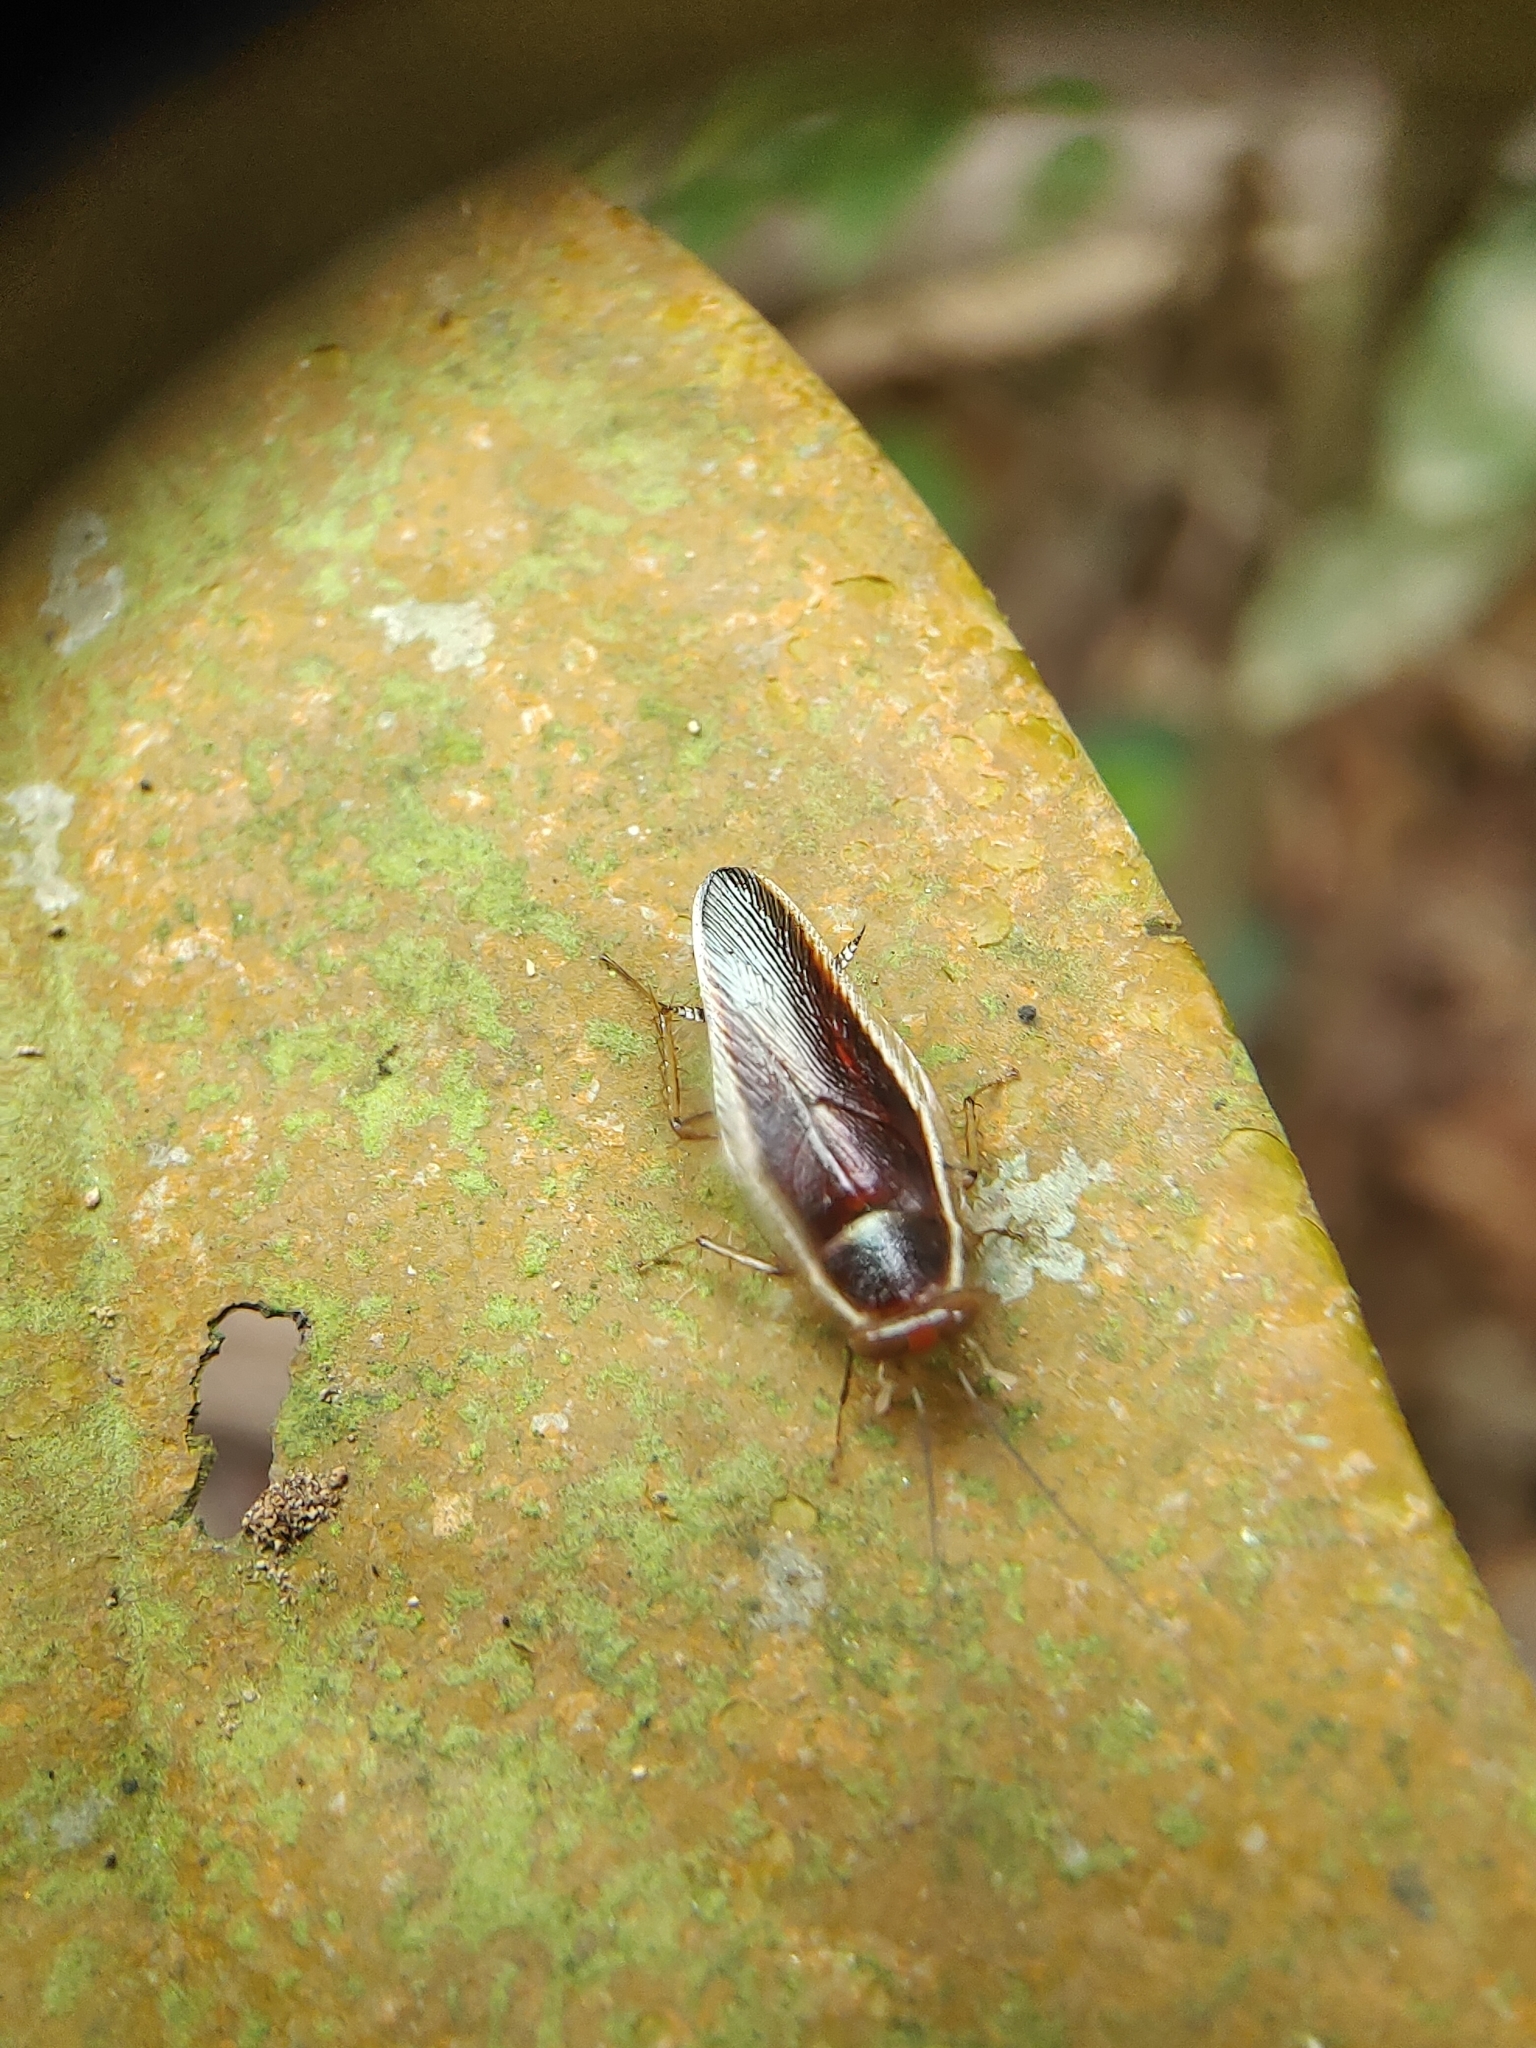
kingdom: Animalia
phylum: Arthropoda
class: Insecta
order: Blattodea
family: Ectobiidae
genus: Pseudophyllodromia
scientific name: Pseudophyllodromia laticeps
